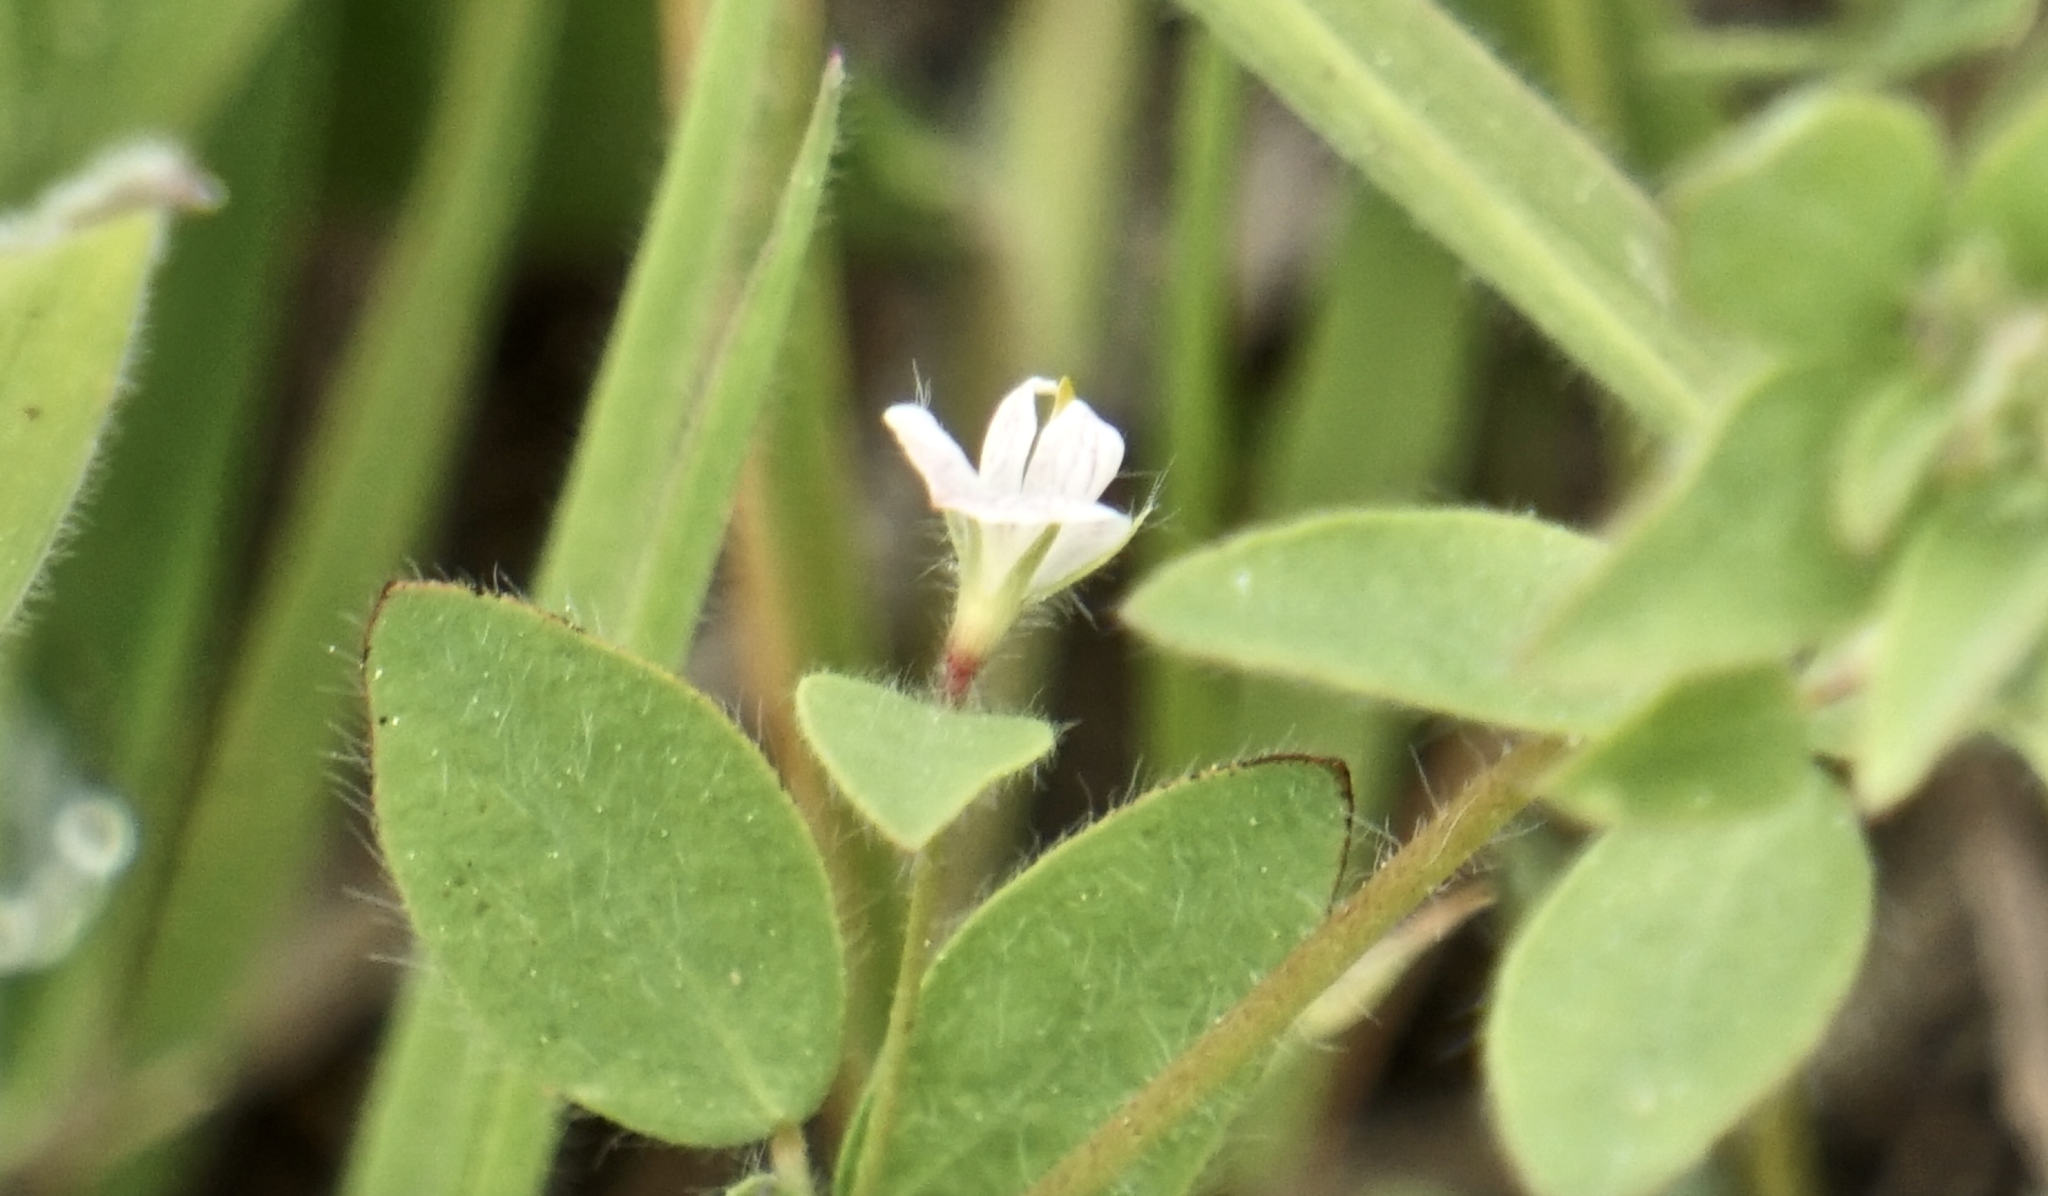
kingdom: Plantae
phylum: Tracheophyta
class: Magnoliopsida
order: Fabales
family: Fabaceae
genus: Acmispon
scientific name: Acmispon americanus
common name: American bird's-foot trefoil
